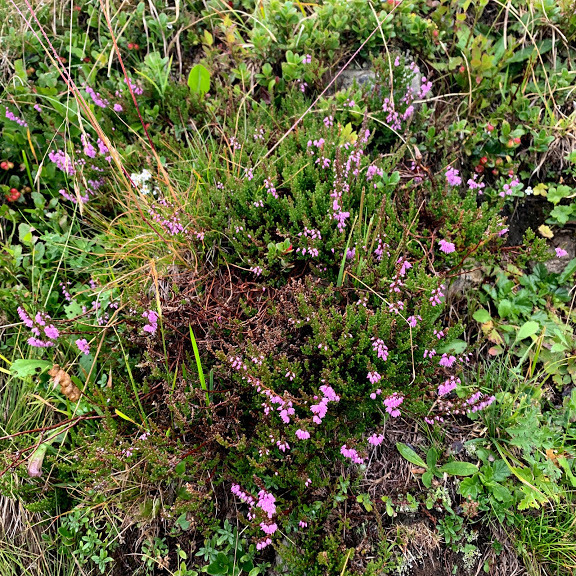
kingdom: Plantae
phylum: Tracheophyta
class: Magnoliopsida
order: Ericales
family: Ericaceae
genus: Calluna
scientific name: Calluna vulgaris
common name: Heather
